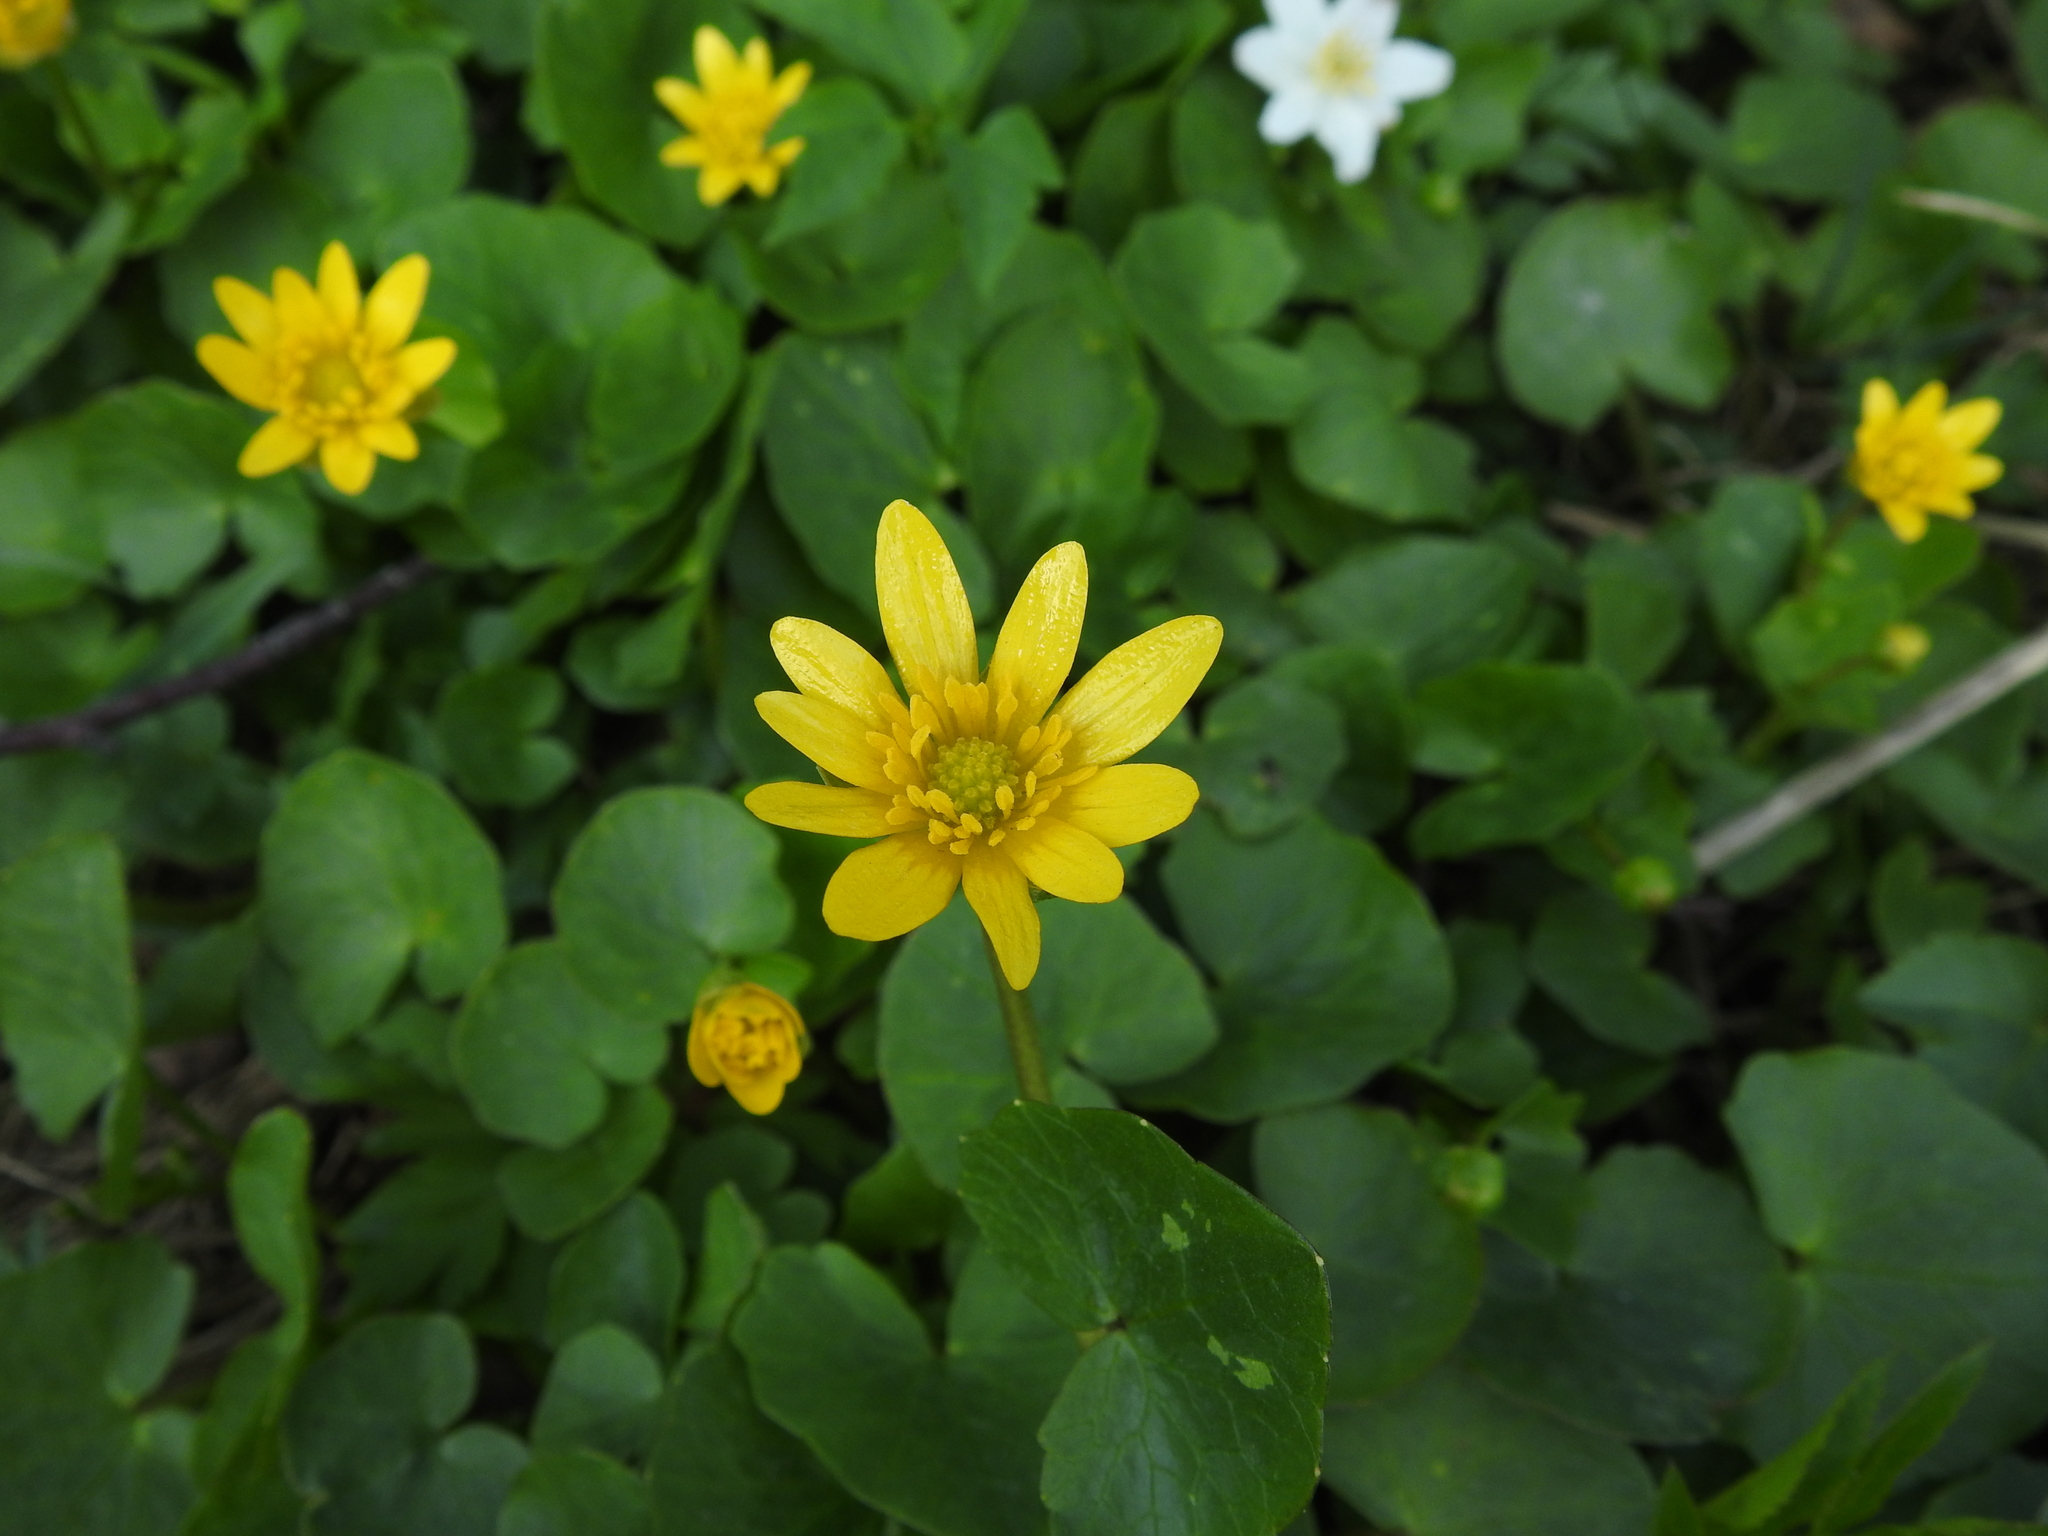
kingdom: Plantae
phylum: Tracheophyta
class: Magnoliopsida
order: Ranunculales
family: Ranunculaceae
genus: Ficaria
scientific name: Ficaria verna
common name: Lesser celandine
